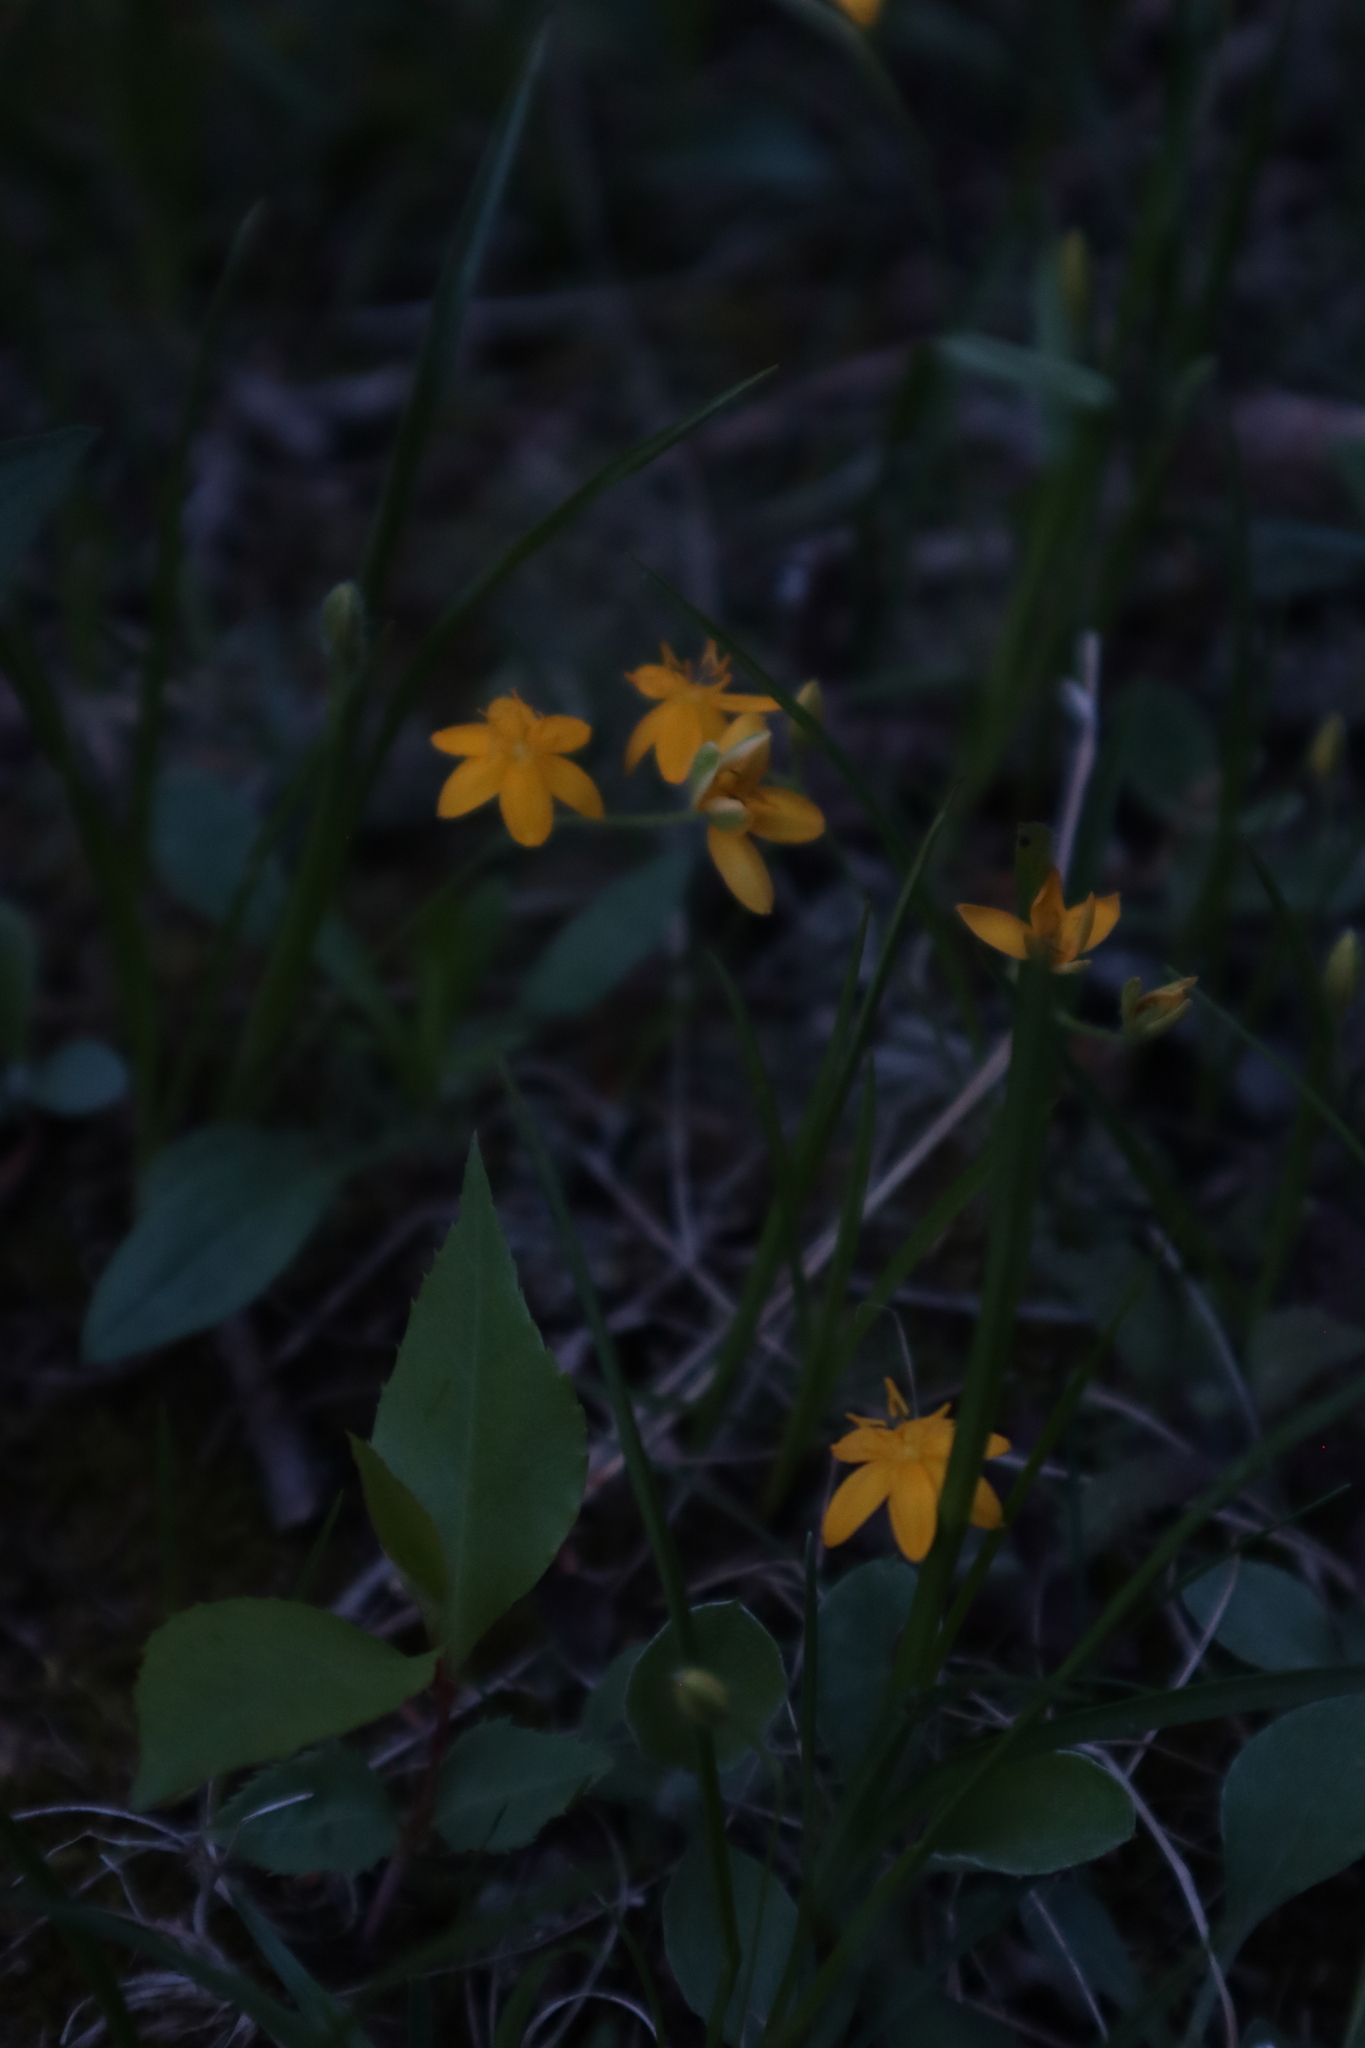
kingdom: Plantae
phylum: Tracheophyta
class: Liliopsida
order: Asparagales
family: Hypoxidaceae
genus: Hypoxis
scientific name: Hypoxis hirsuta
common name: Common goldstar
